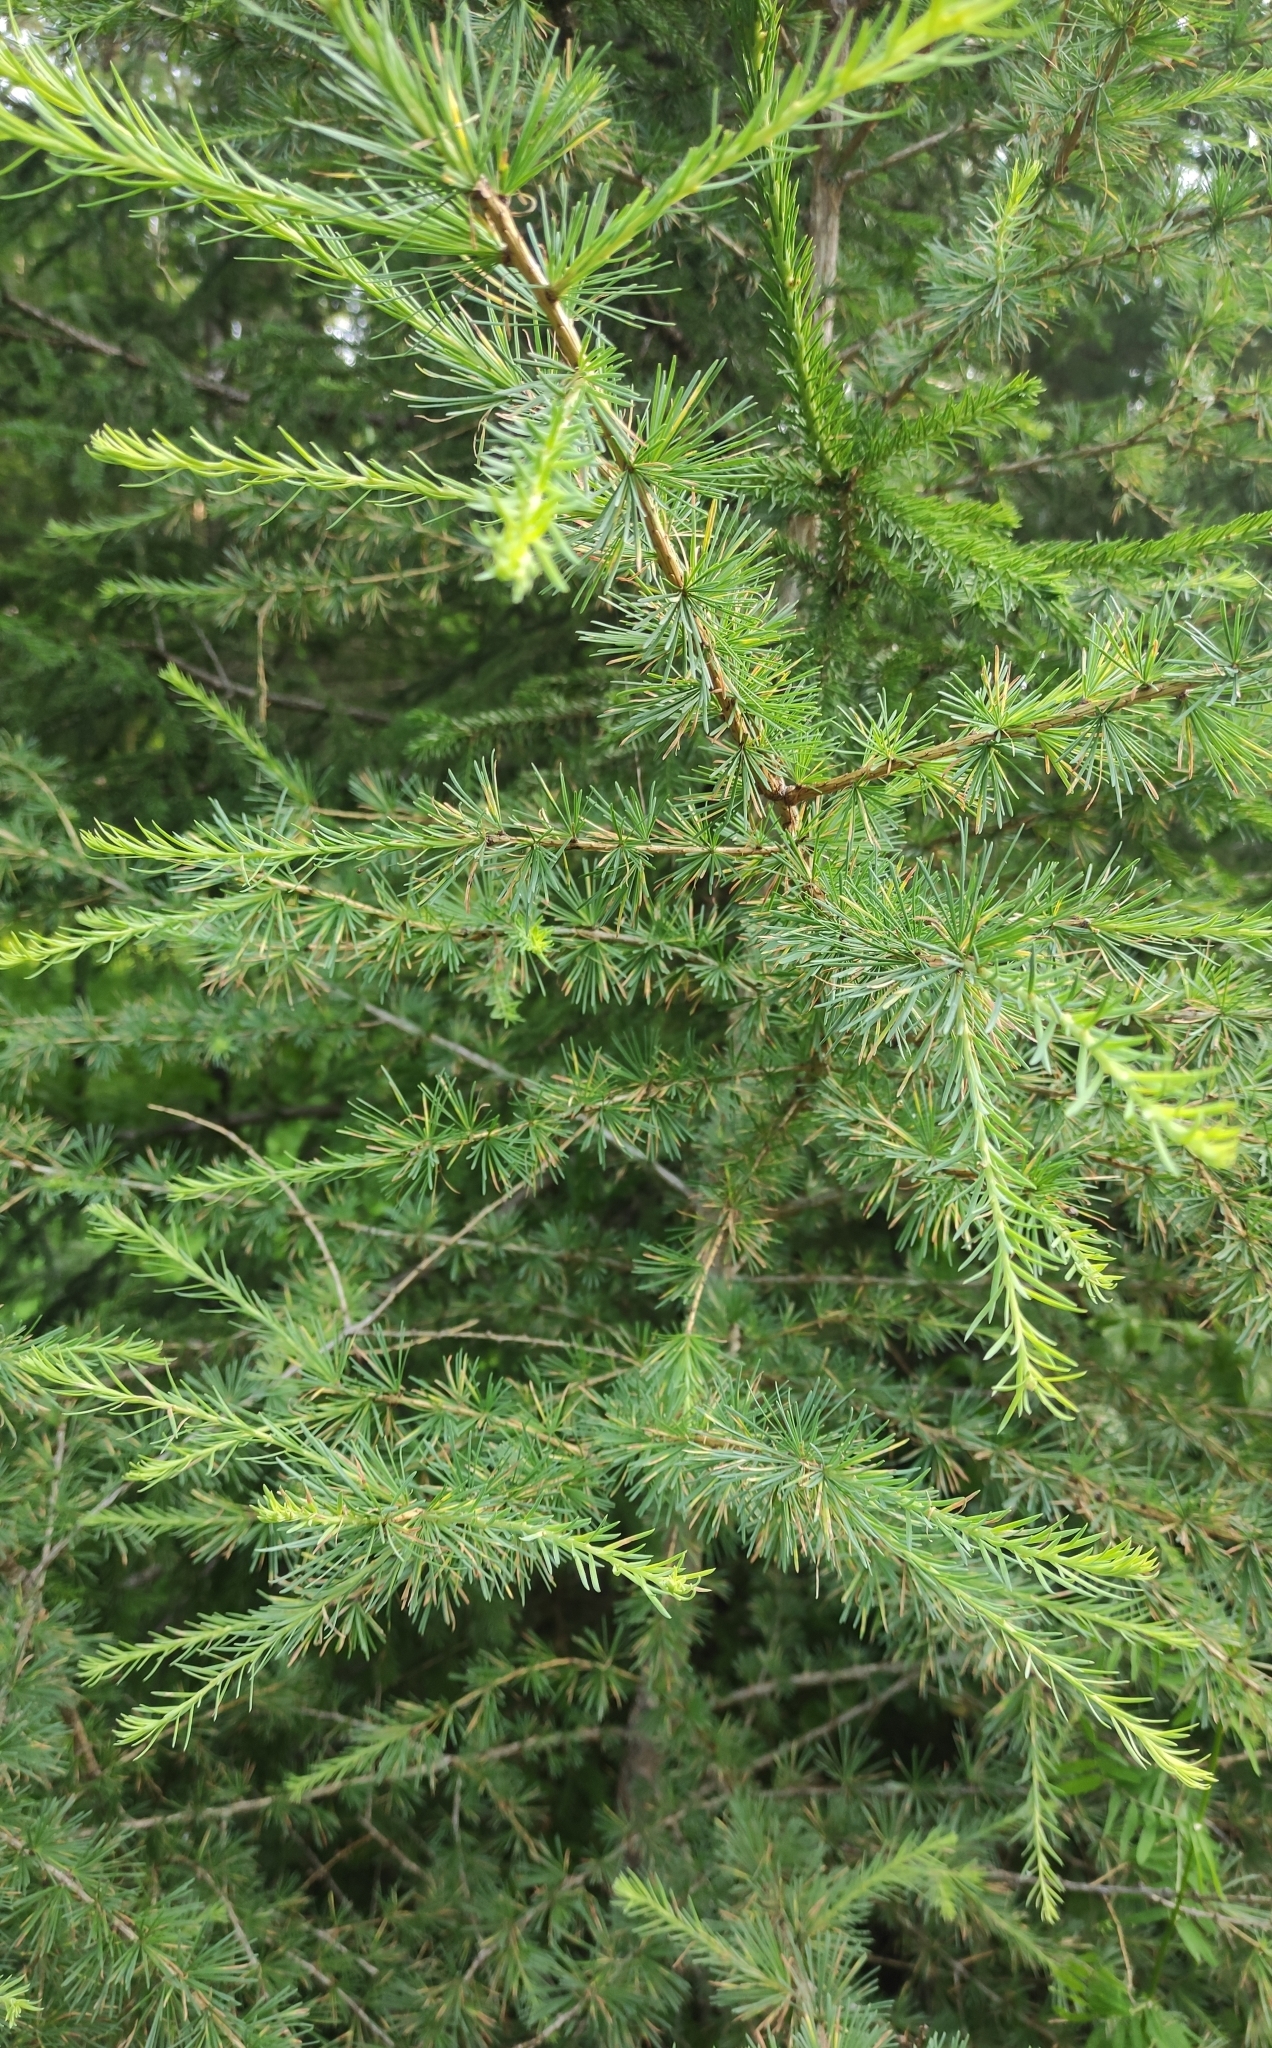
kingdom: Plantae
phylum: Tracheophyta
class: Pinopsida
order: Pinales
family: Pinaceae
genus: Larix
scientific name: Larix sibirica
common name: Siberian larch
